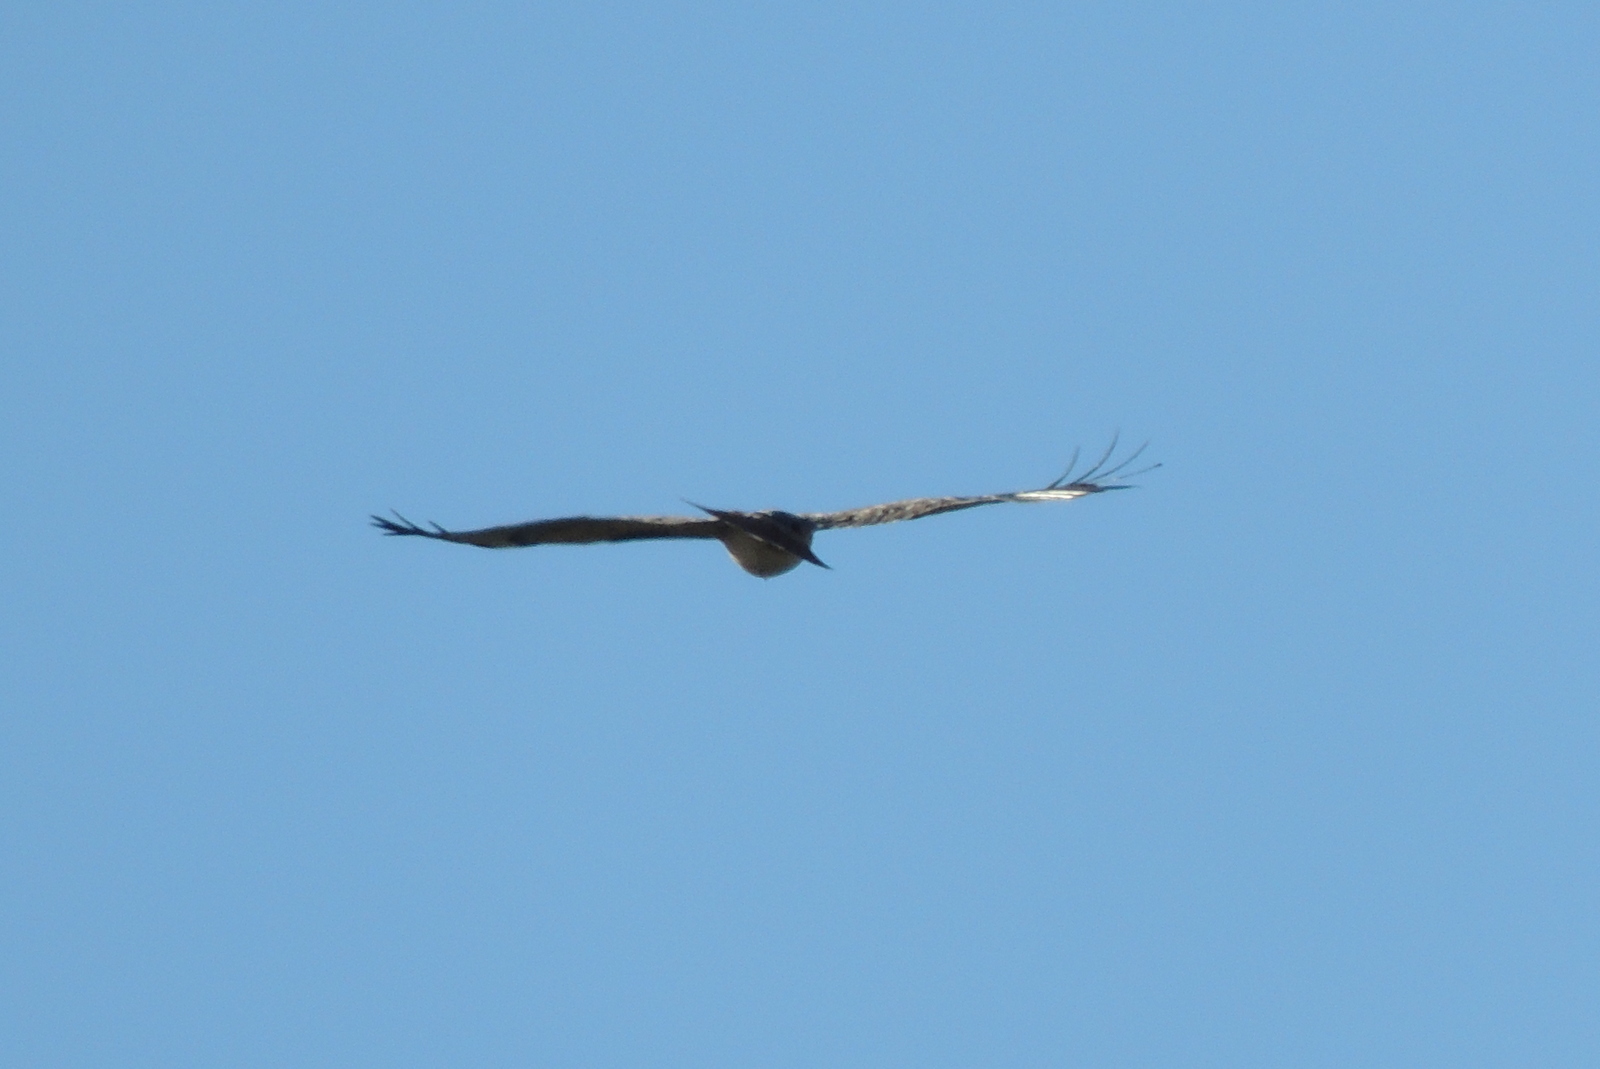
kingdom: Animalia
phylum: Chordata
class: Aves
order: Accipitriformes
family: Accipitridae
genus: Buteo
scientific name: Buteo jamaicensis
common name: Red-tailed hawk
